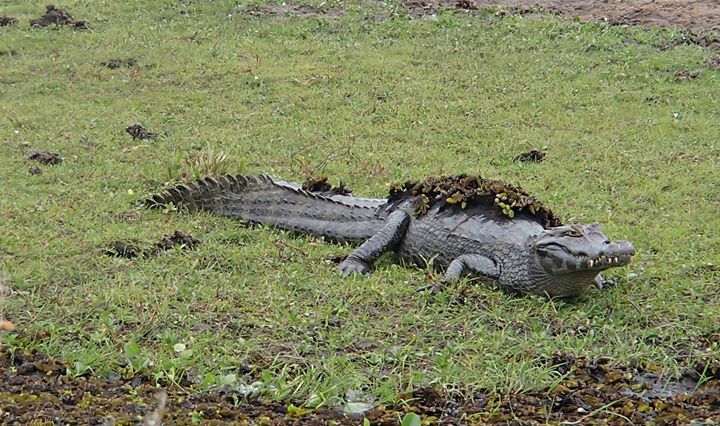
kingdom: Animalia
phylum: Chordata
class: Crocodylia
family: Alligatoridae
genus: Caiman
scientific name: Caiman yacare
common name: Yacare caiman
